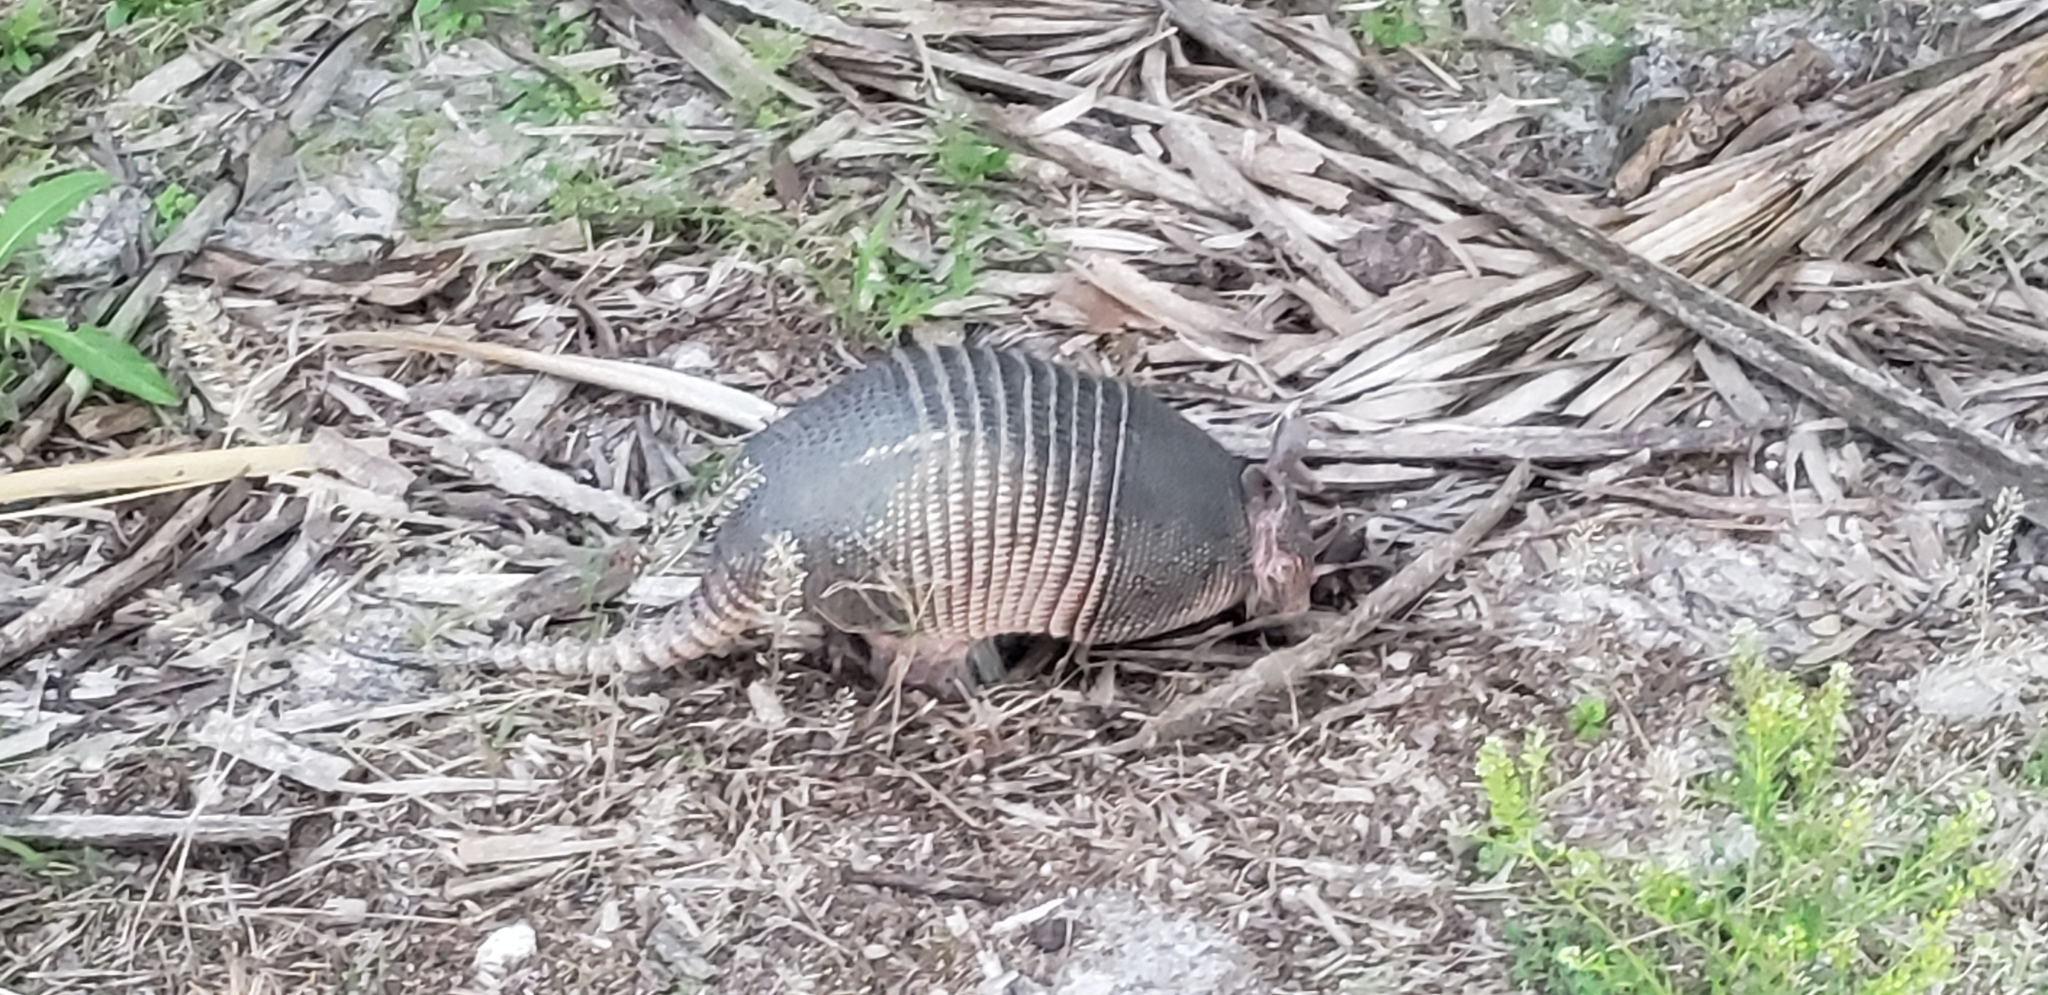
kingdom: Animalia
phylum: Chordata
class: Mammalia
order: Cingulata
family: Dasypodidae
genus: Dasypus
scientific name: Dasypus novemcinctus
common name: Nine-banded armadillo
